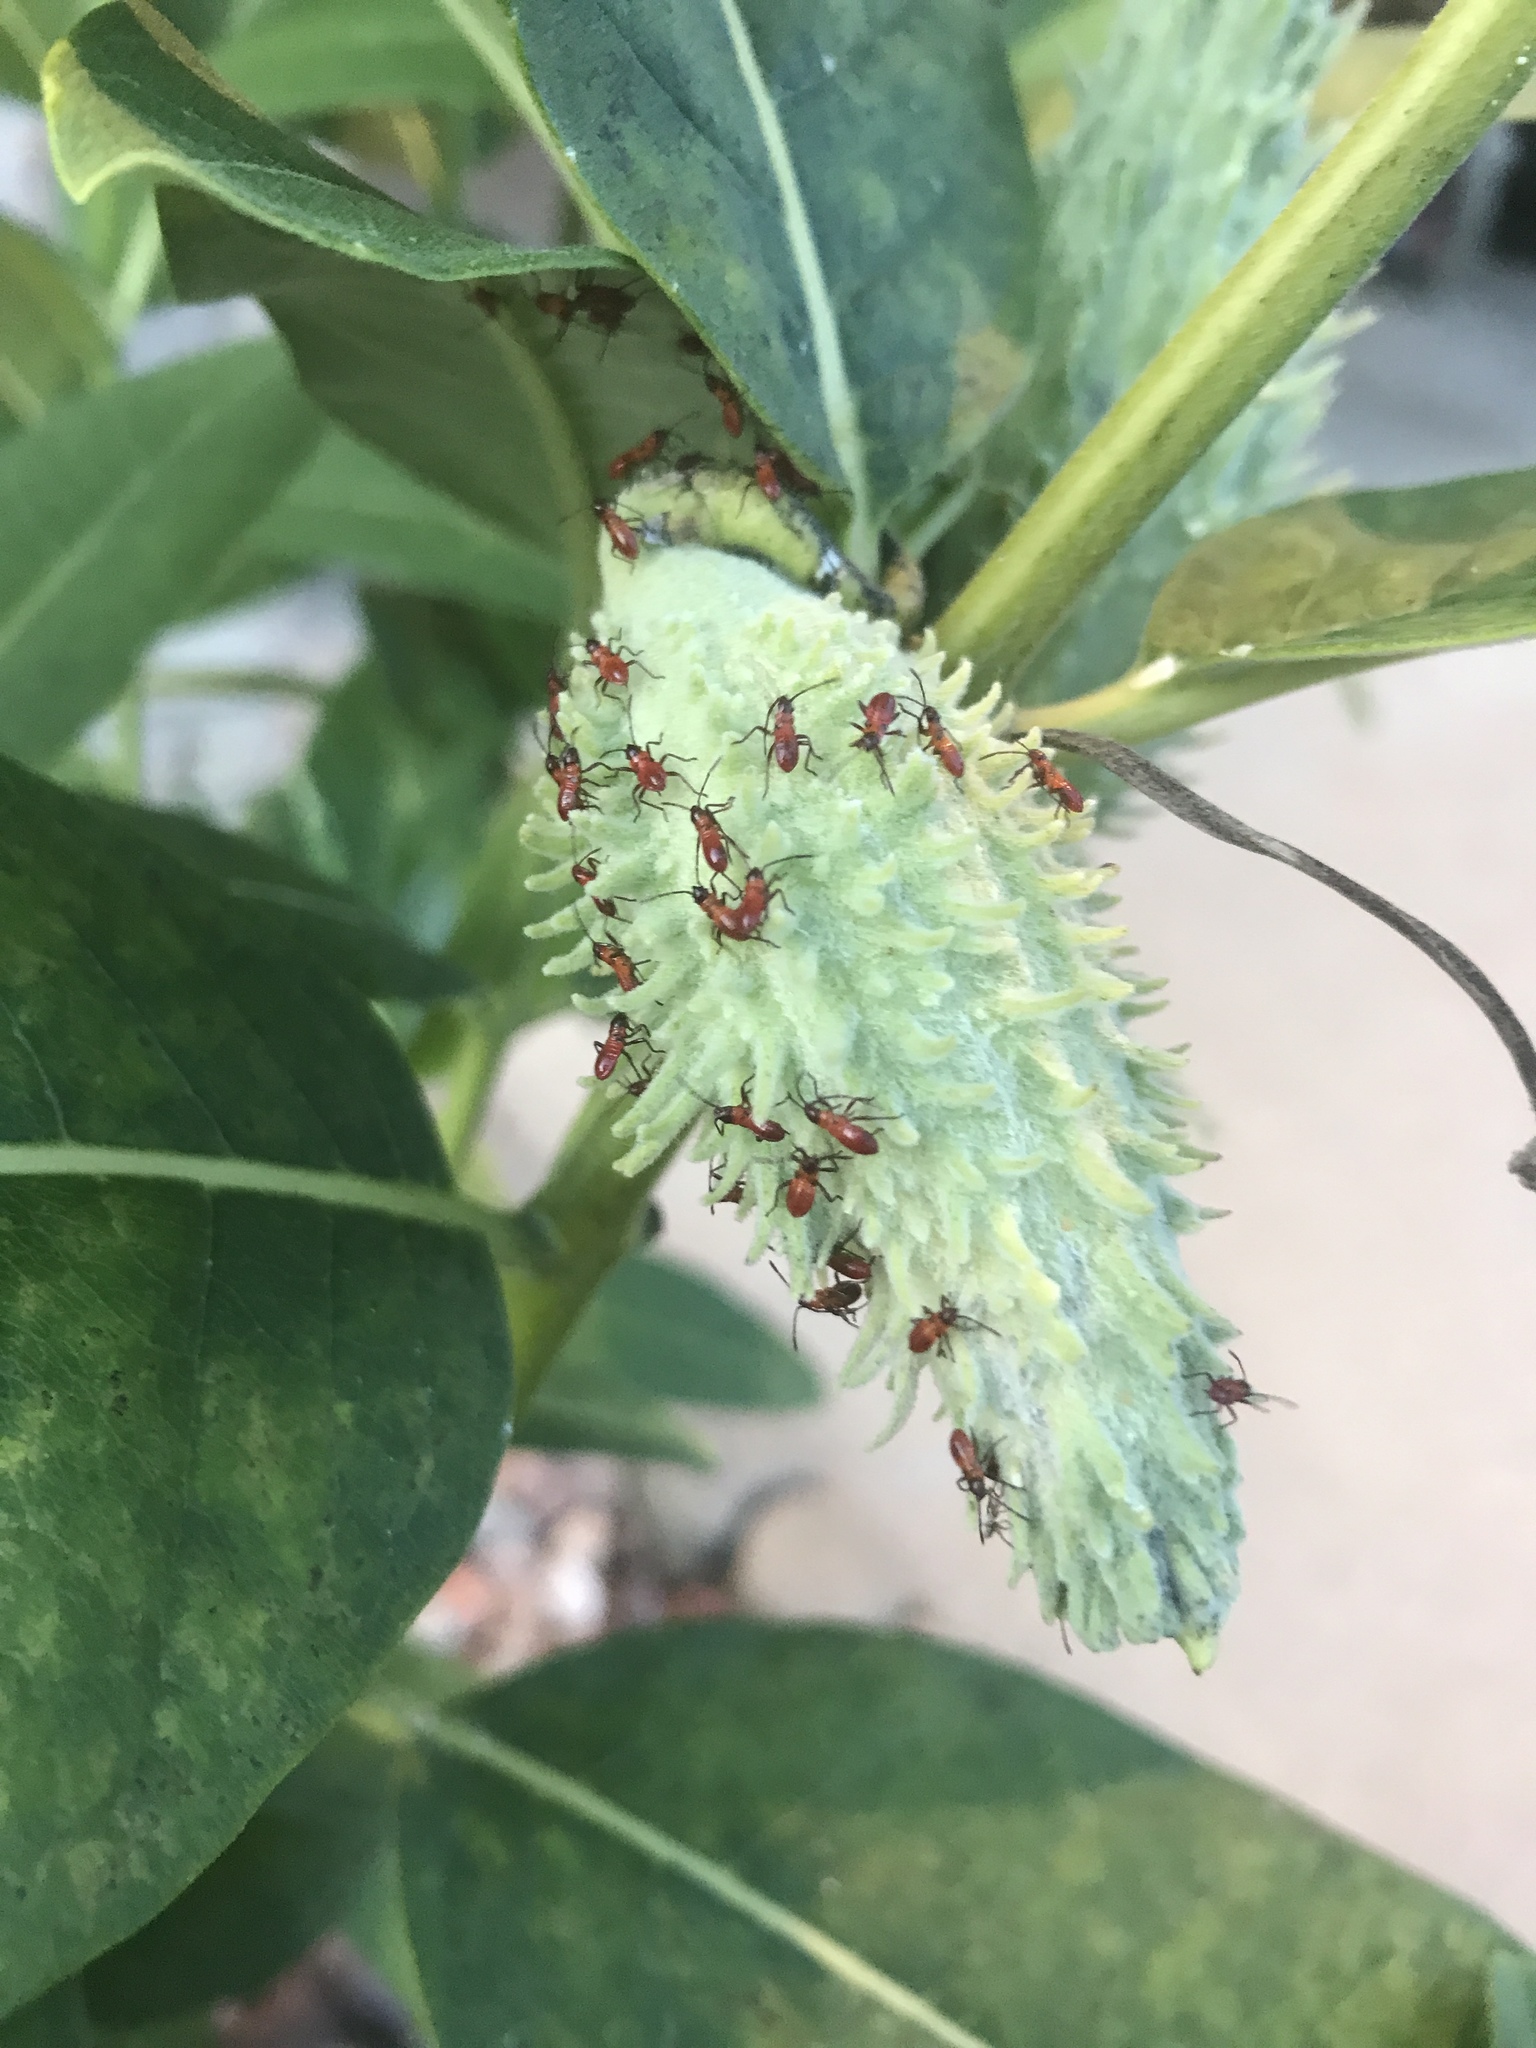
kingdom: Animalia
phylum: Arthropoda
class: Insecta
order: Hemiptera
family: Lygaeidae
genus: Oncopeltus
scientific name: Oncopeltus fasciatus
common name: Large milkweed bug
